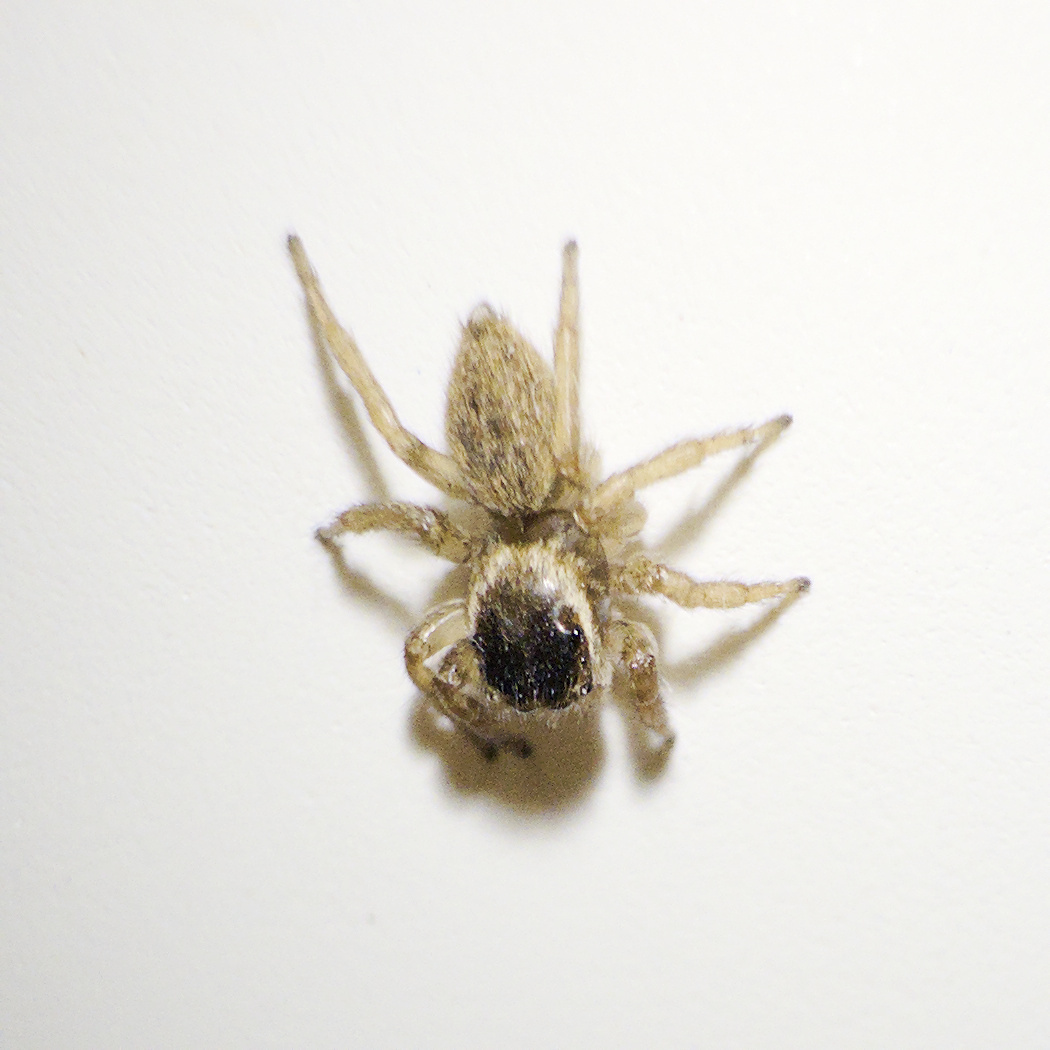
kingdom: Animalia
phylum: Arthropoda
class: Arachnida
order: Araneae
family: Salticidae
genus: Maratus
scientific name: Maratus griseus
